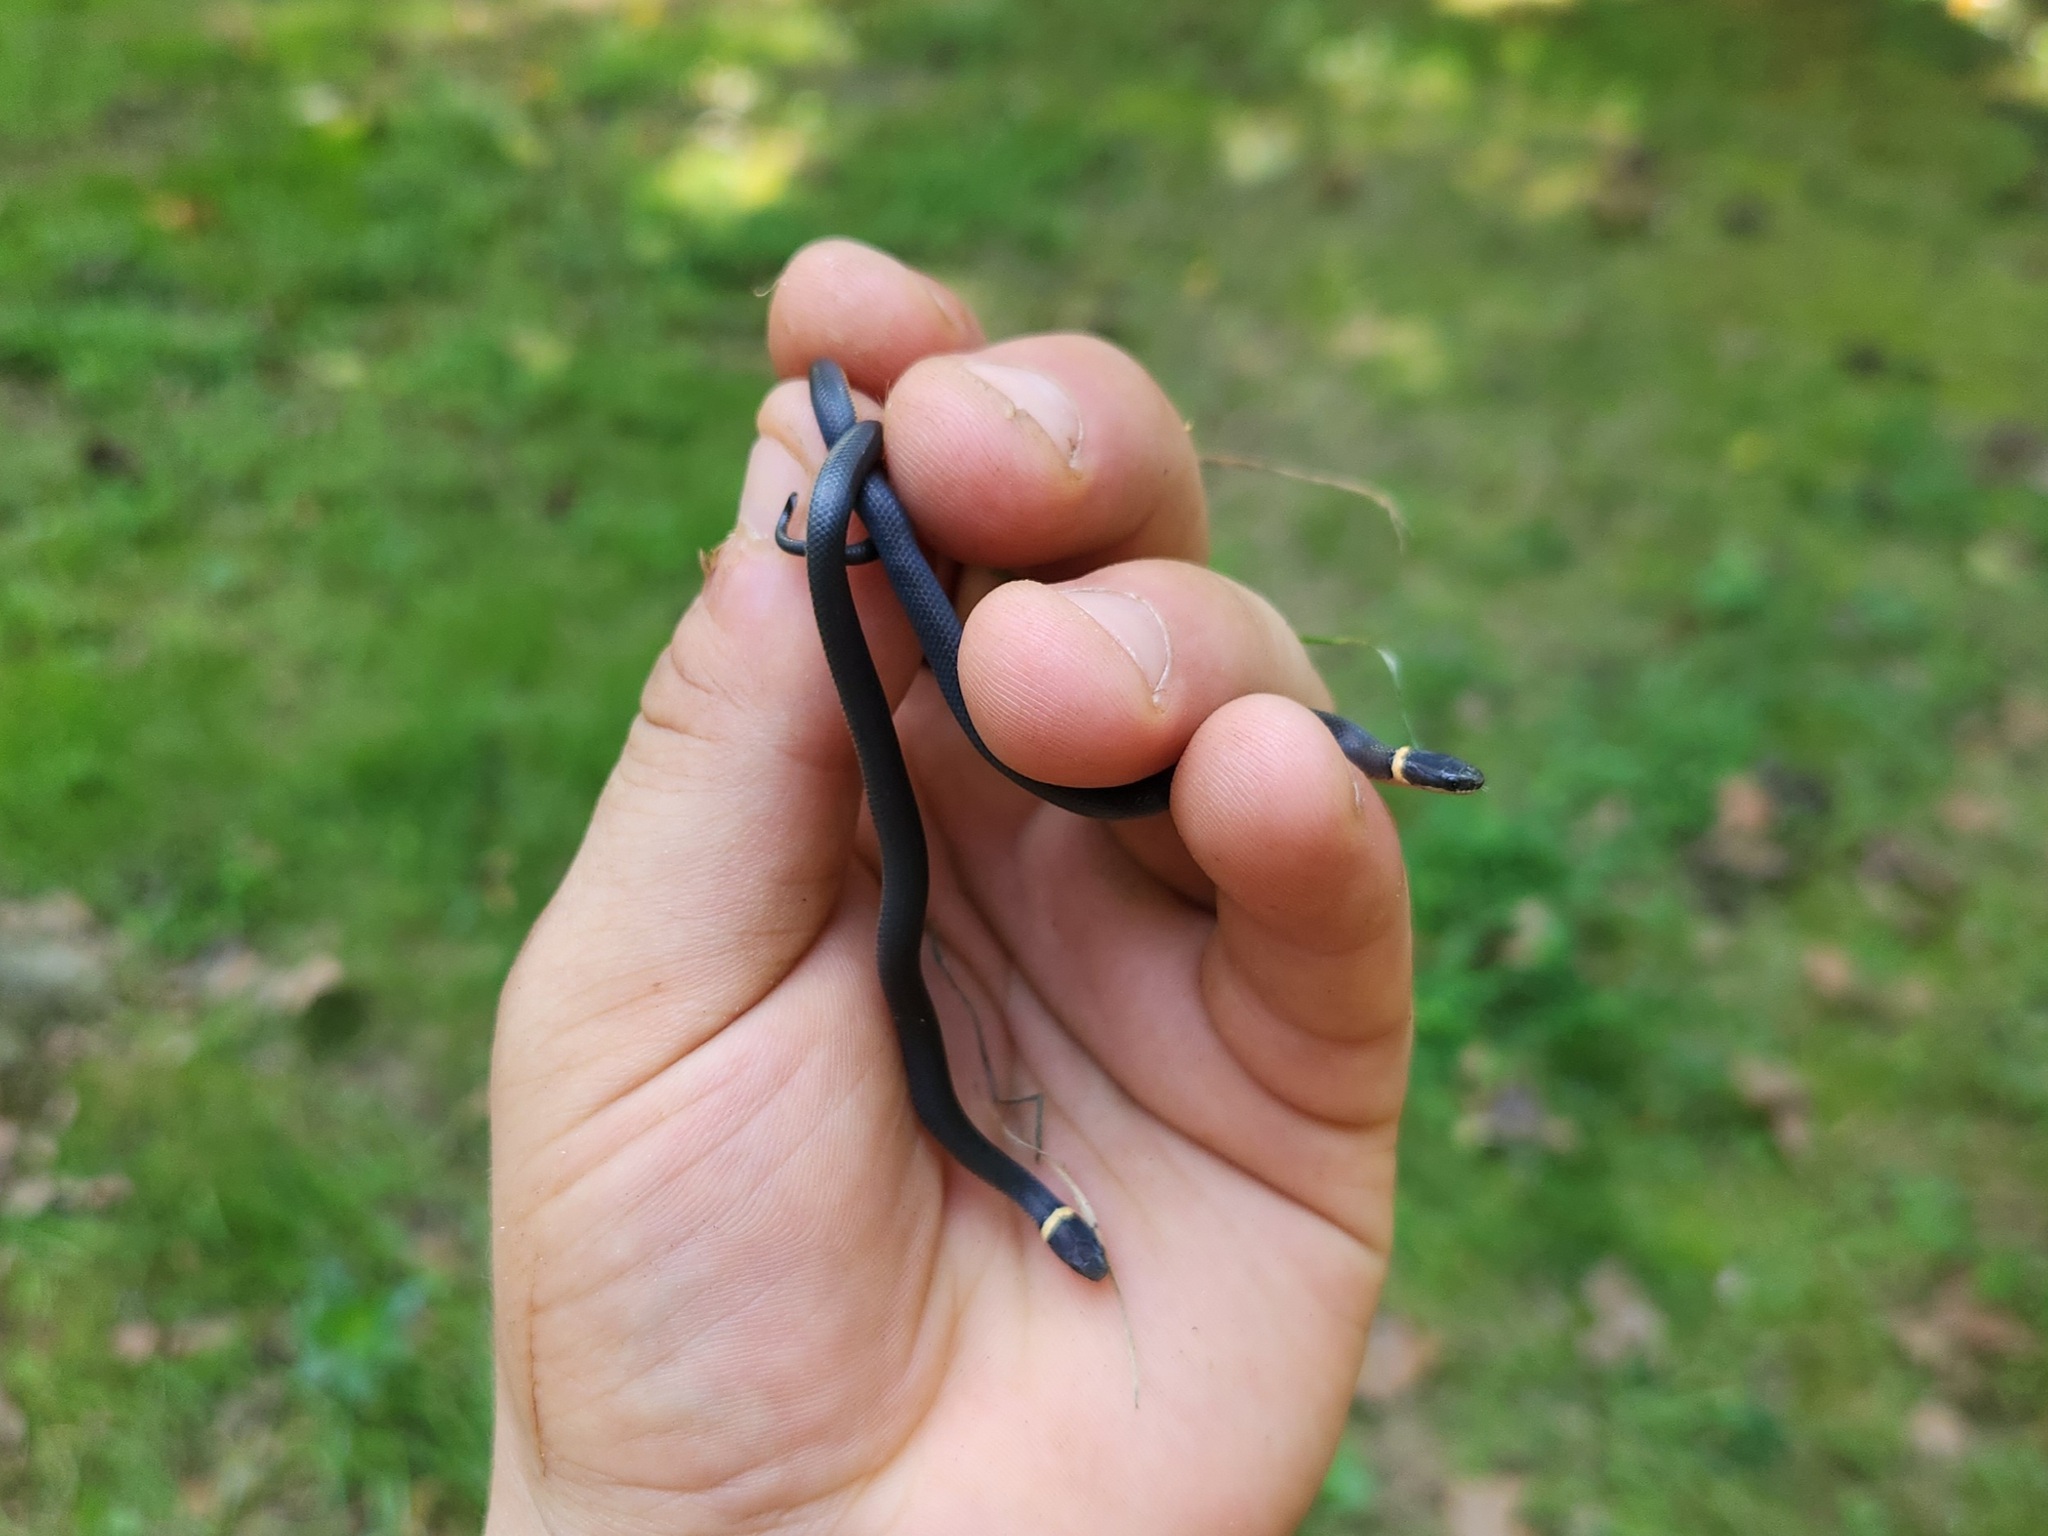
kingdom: Animalia
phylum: Chordata
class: Squamata
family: Colubridae
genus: Diadophis
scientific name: Diadophis punctatus
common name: Ringneck snake
